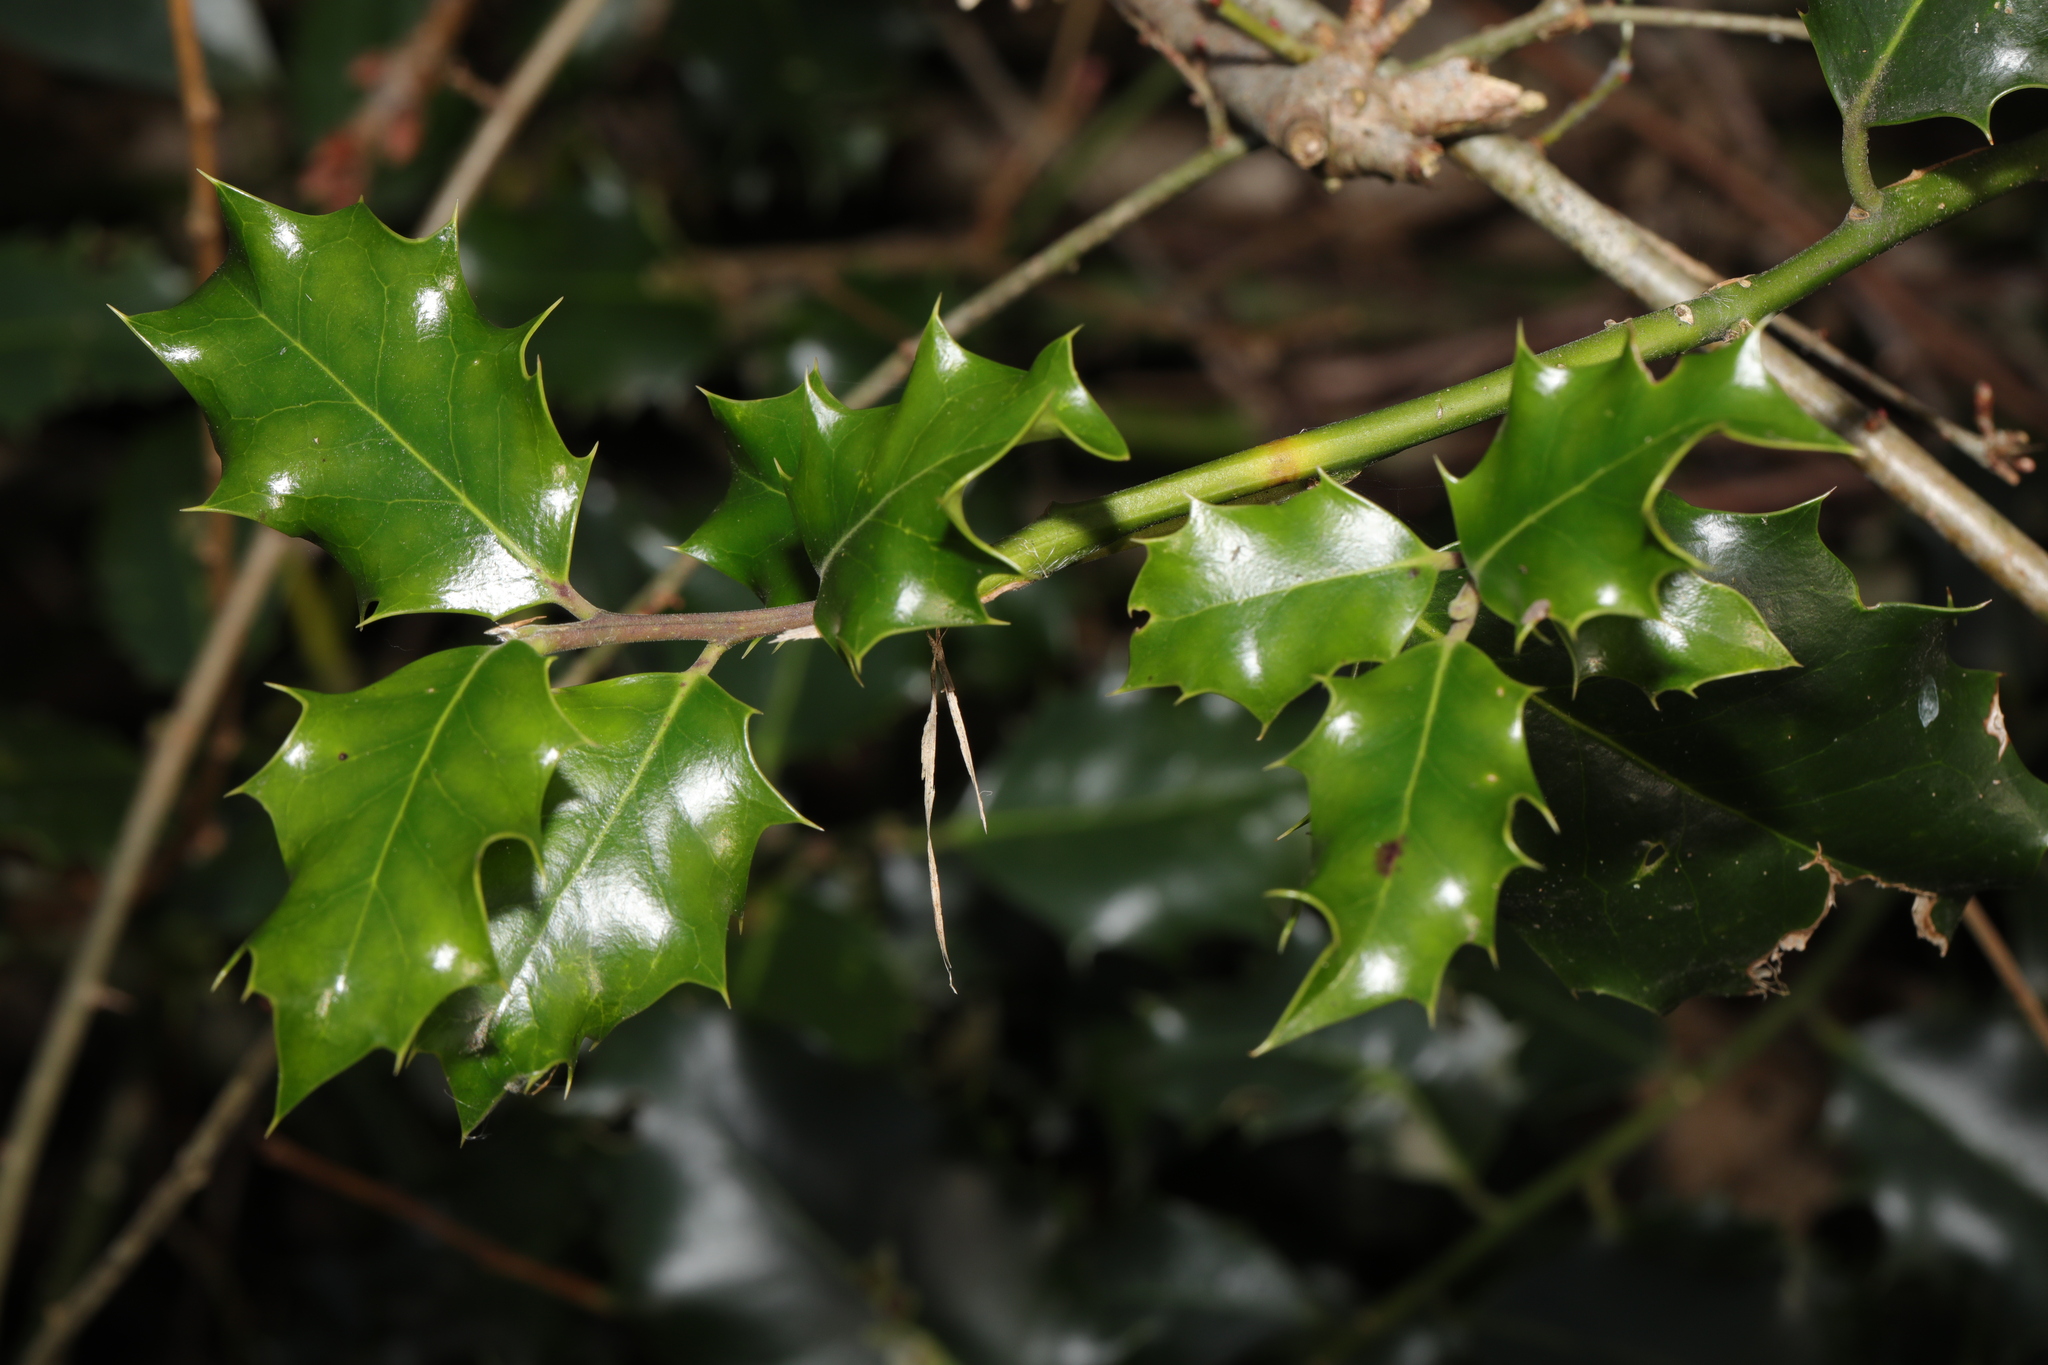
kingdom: Plantae
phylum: Tracheophyta
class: Magnoliopsida
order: Aquifoliales
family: Aquifoliaceae
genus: Ilex
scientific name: Ilex aquifolium
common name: English holly
